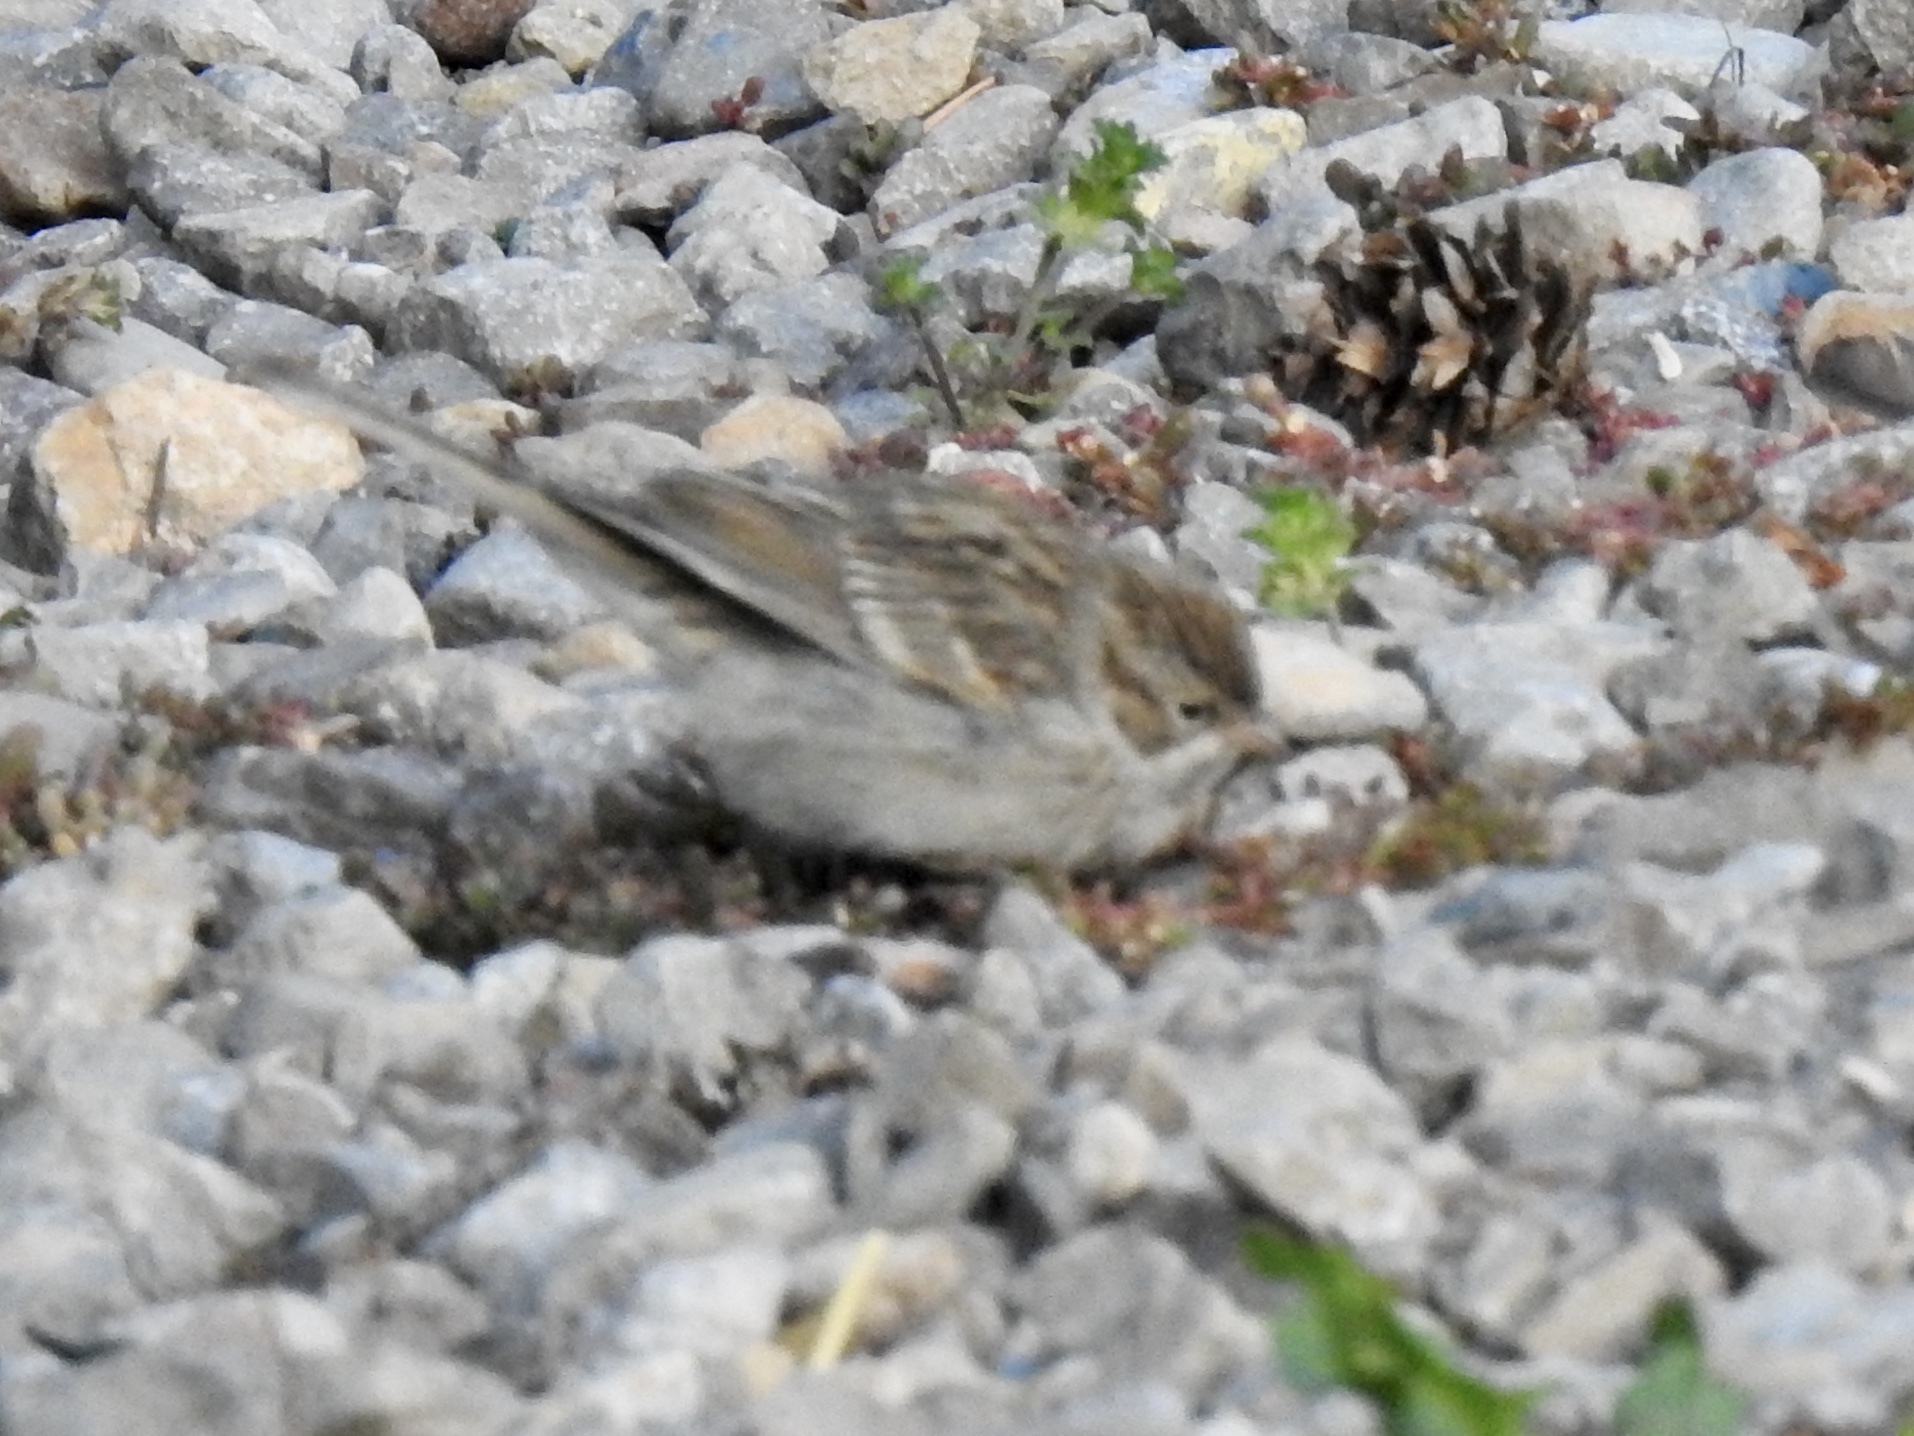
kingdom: Animalia
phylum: Chordata
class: Aves
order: Passeriformes
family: Passerellidae
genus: Spizella
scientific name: Spizella passerina
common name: Chipping sparrow
